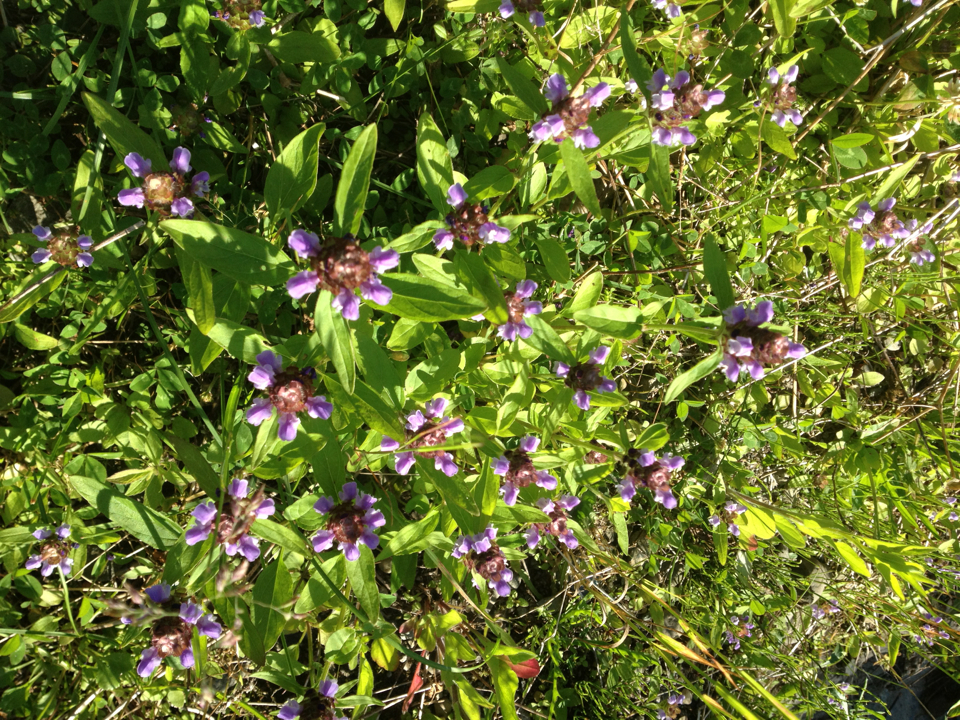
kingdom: Plantae
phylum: Tracheophyta
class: Magnoliopsida
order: Lamiales
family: Lamiaceae
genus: Prunella
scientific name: Prunella vulgaris
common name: Heal-all
